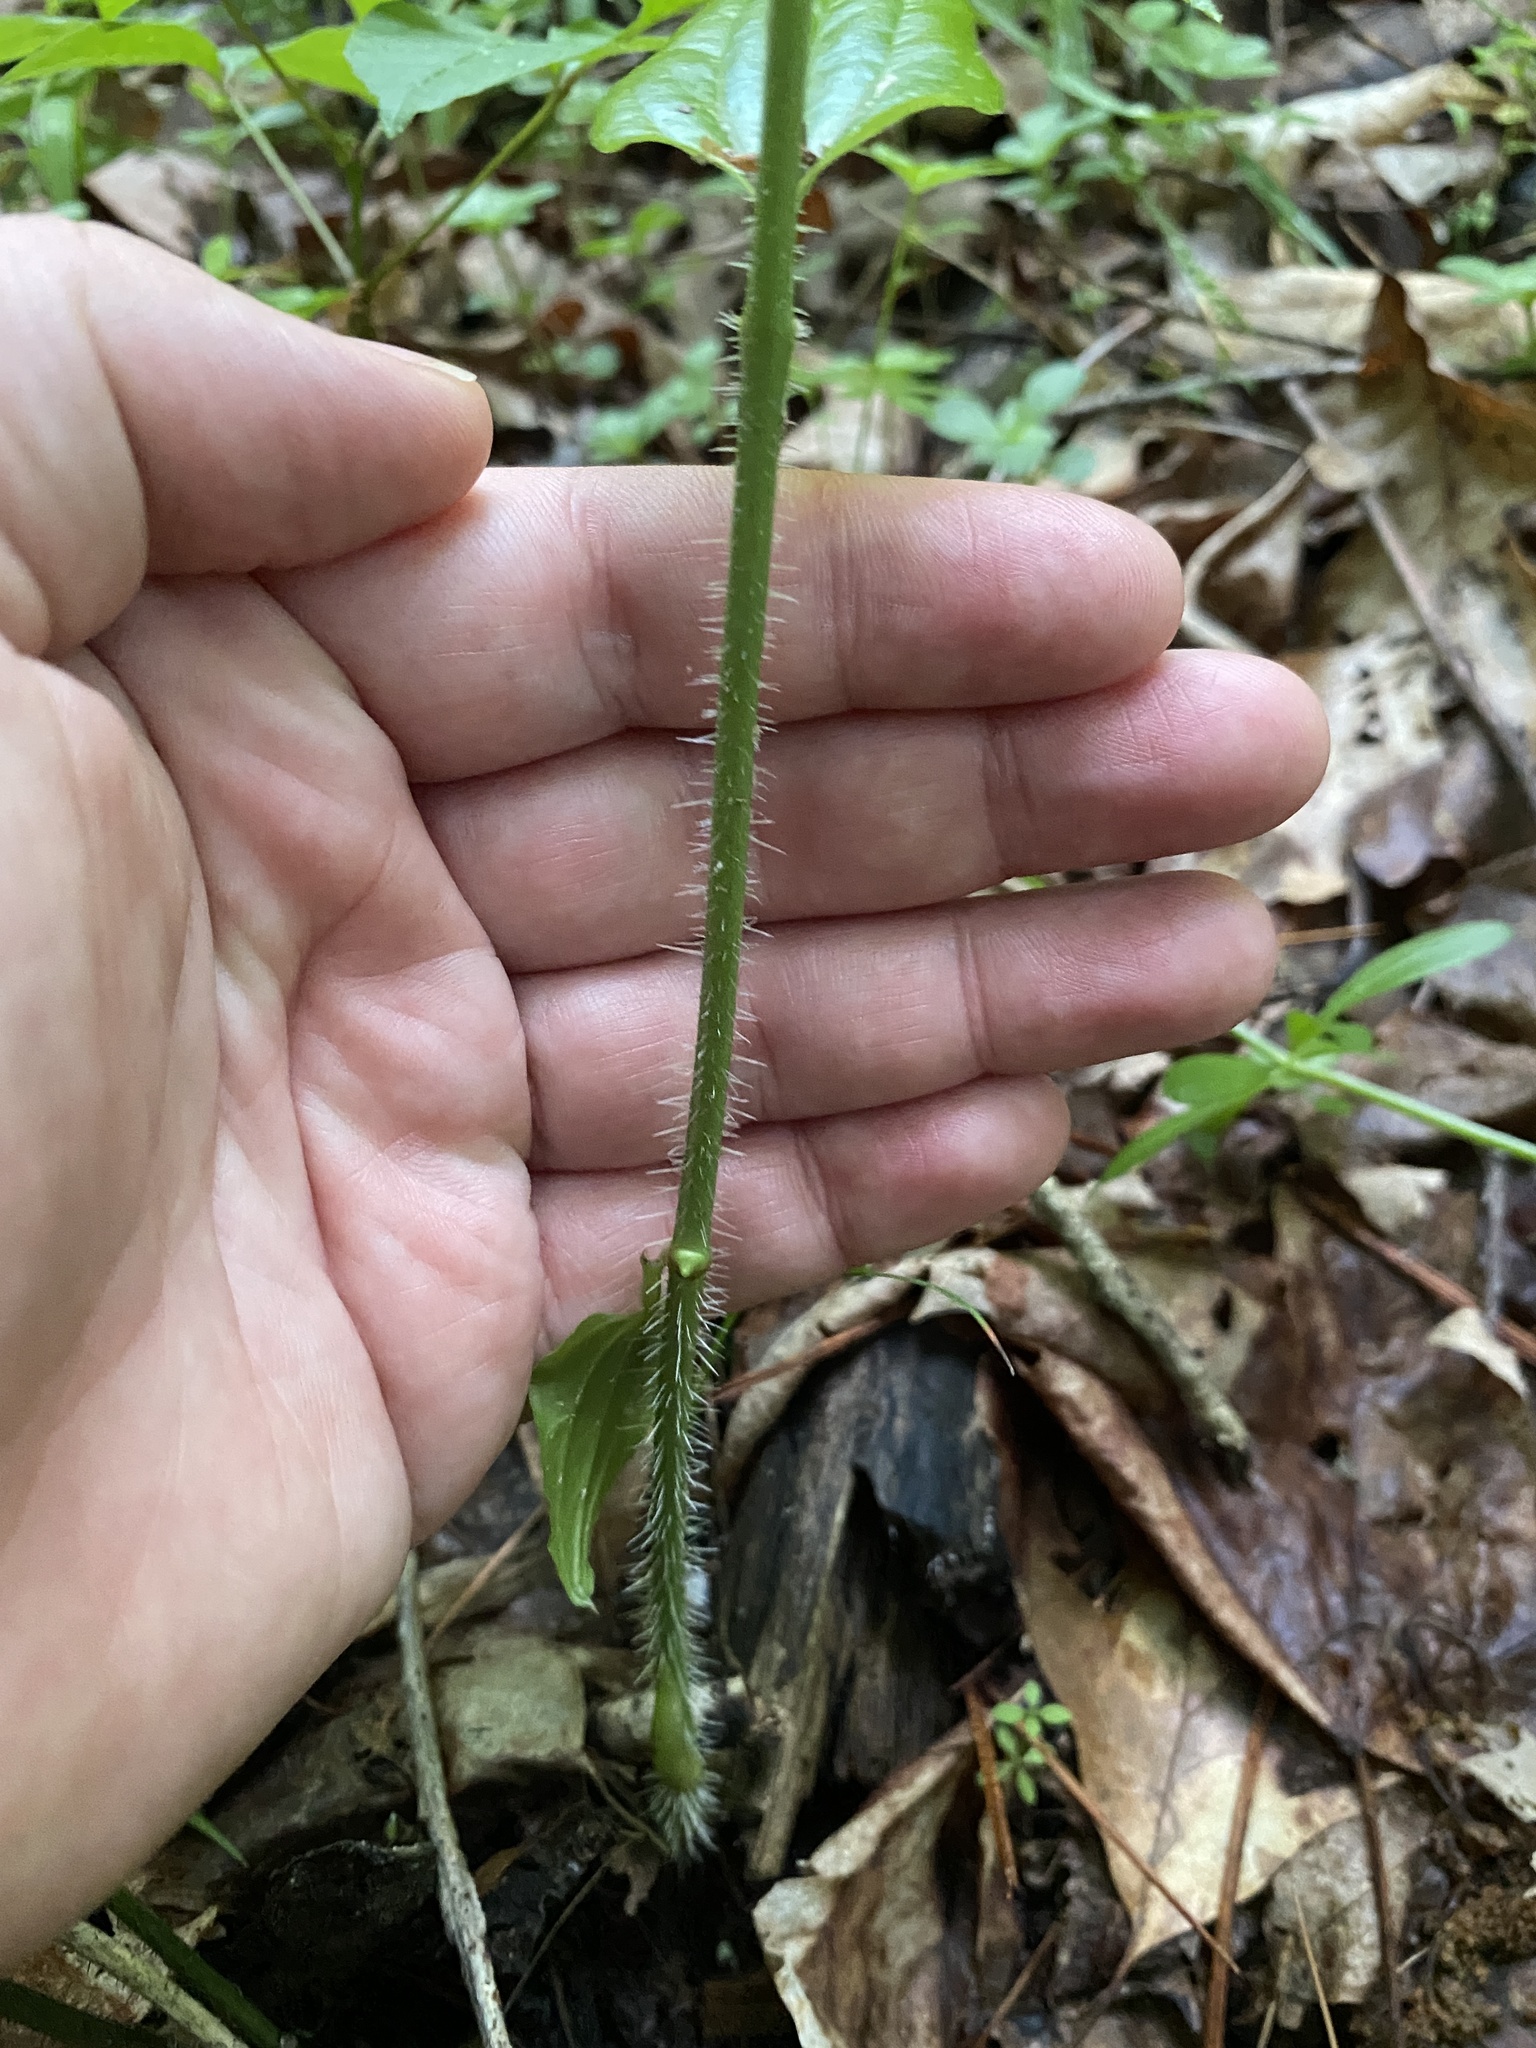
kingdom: Plantae
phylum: Tracheophyta
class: Liliopsida
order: Liliales
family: Smilacaceae
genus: Smilax
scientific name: Smilax tamnoides
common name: Hellfetter
